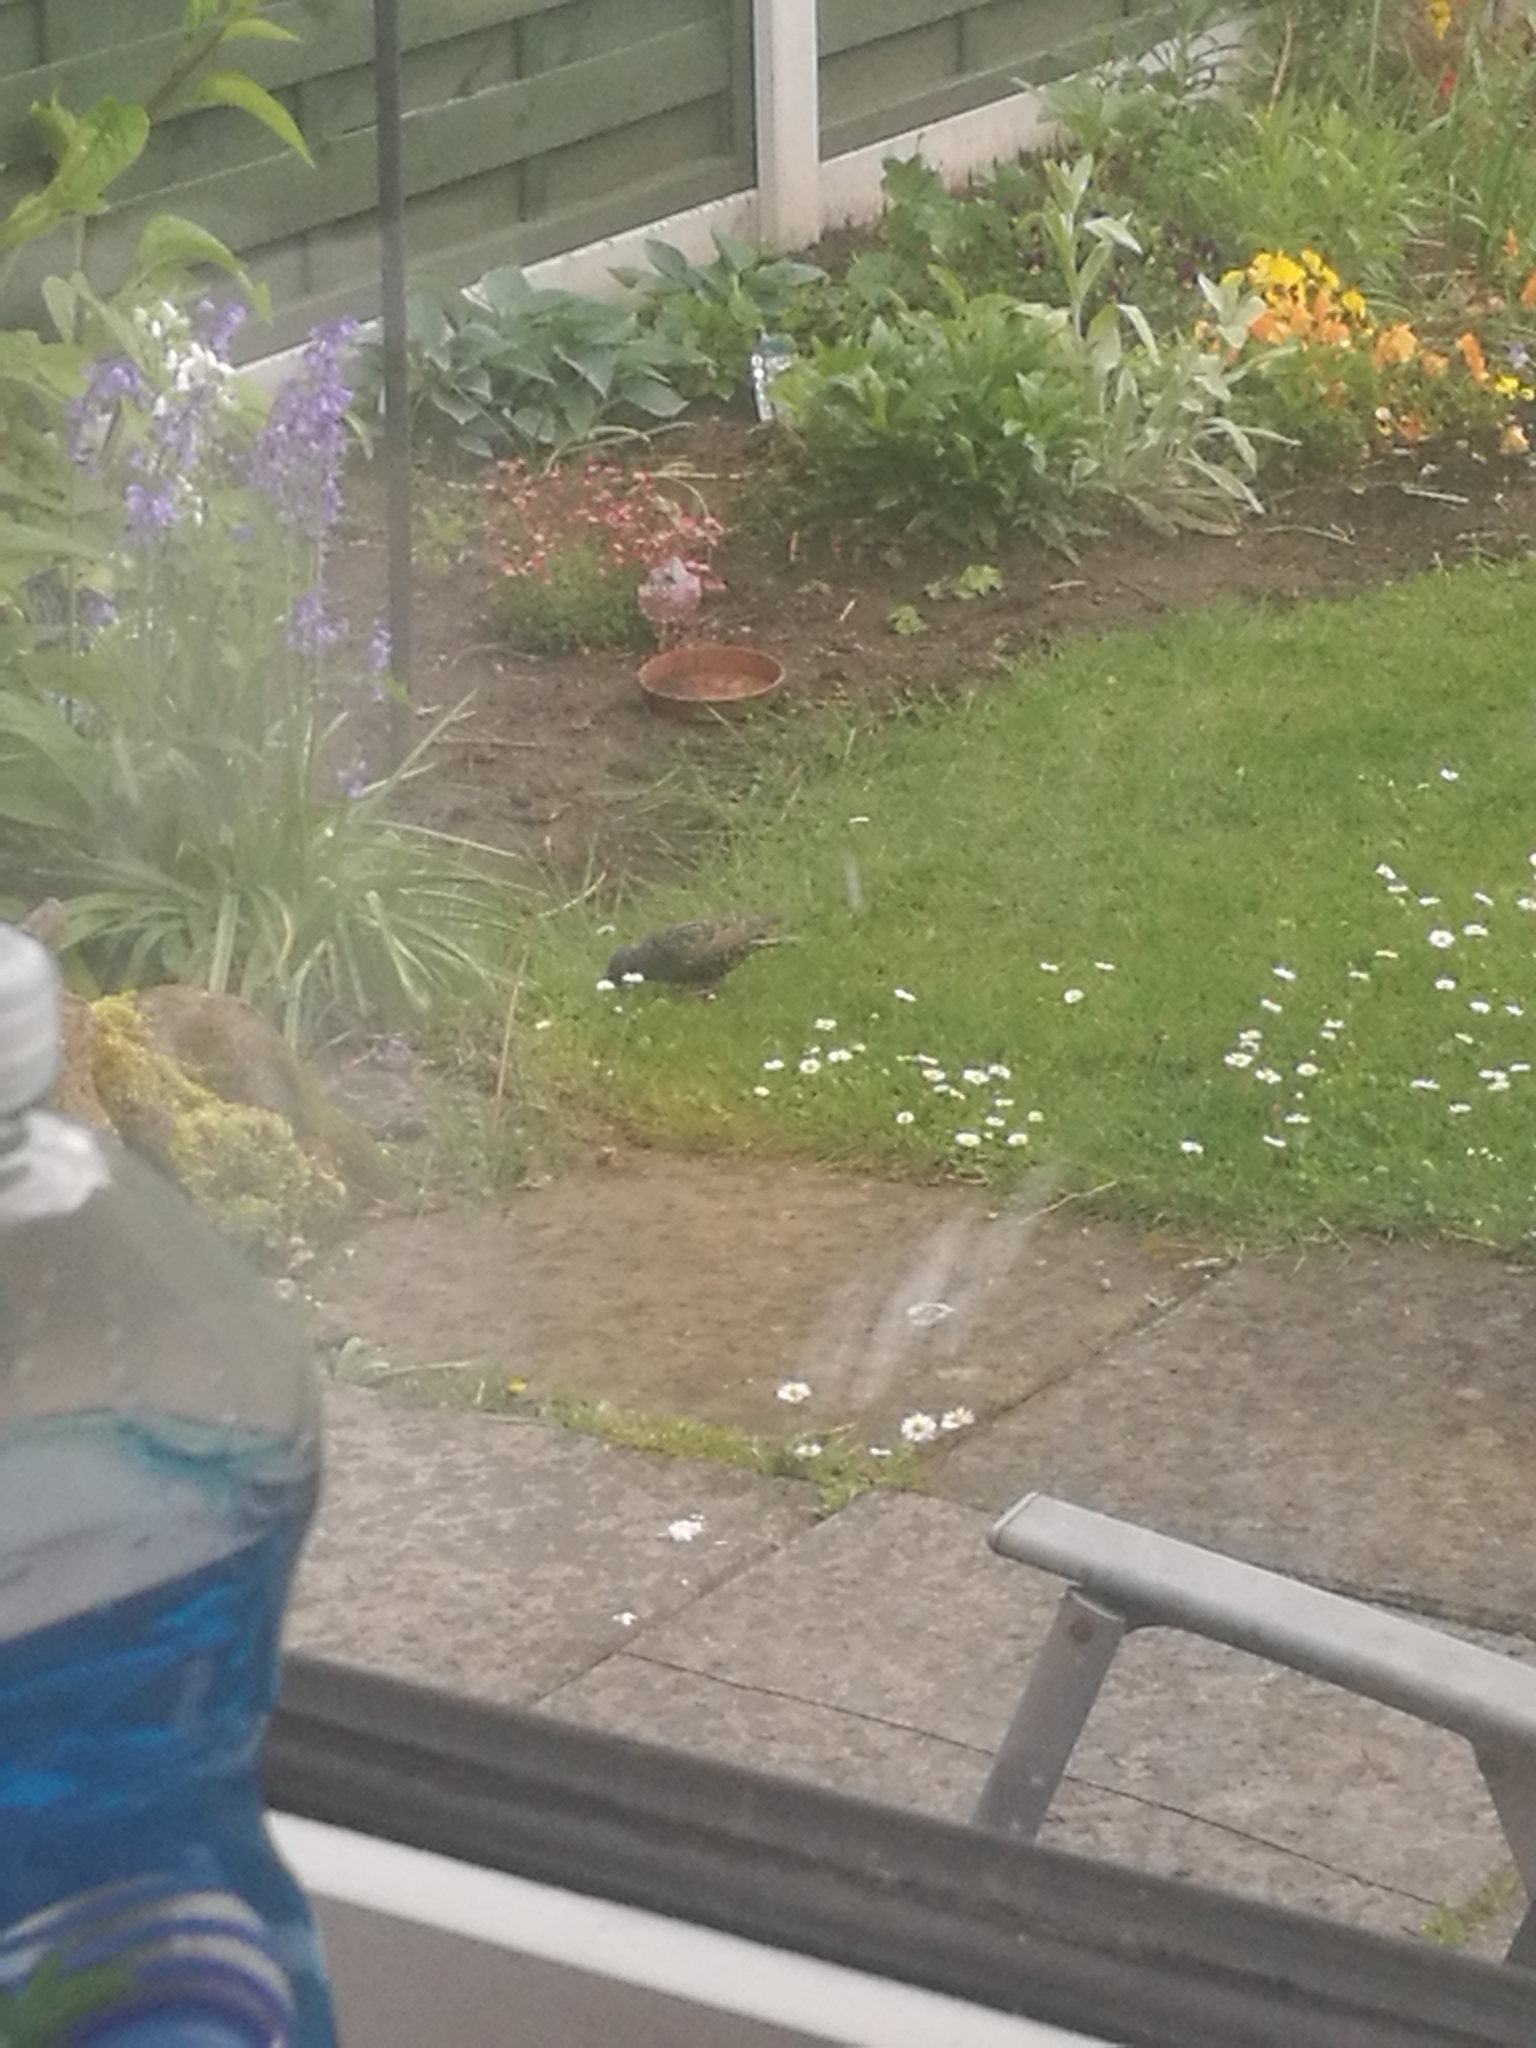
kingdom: Animalia
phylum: Chordata
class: Aves
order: Passeriformes
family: Sturnidae
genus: Sturnus
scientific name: Sturnus vulgaris
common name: Common starling
